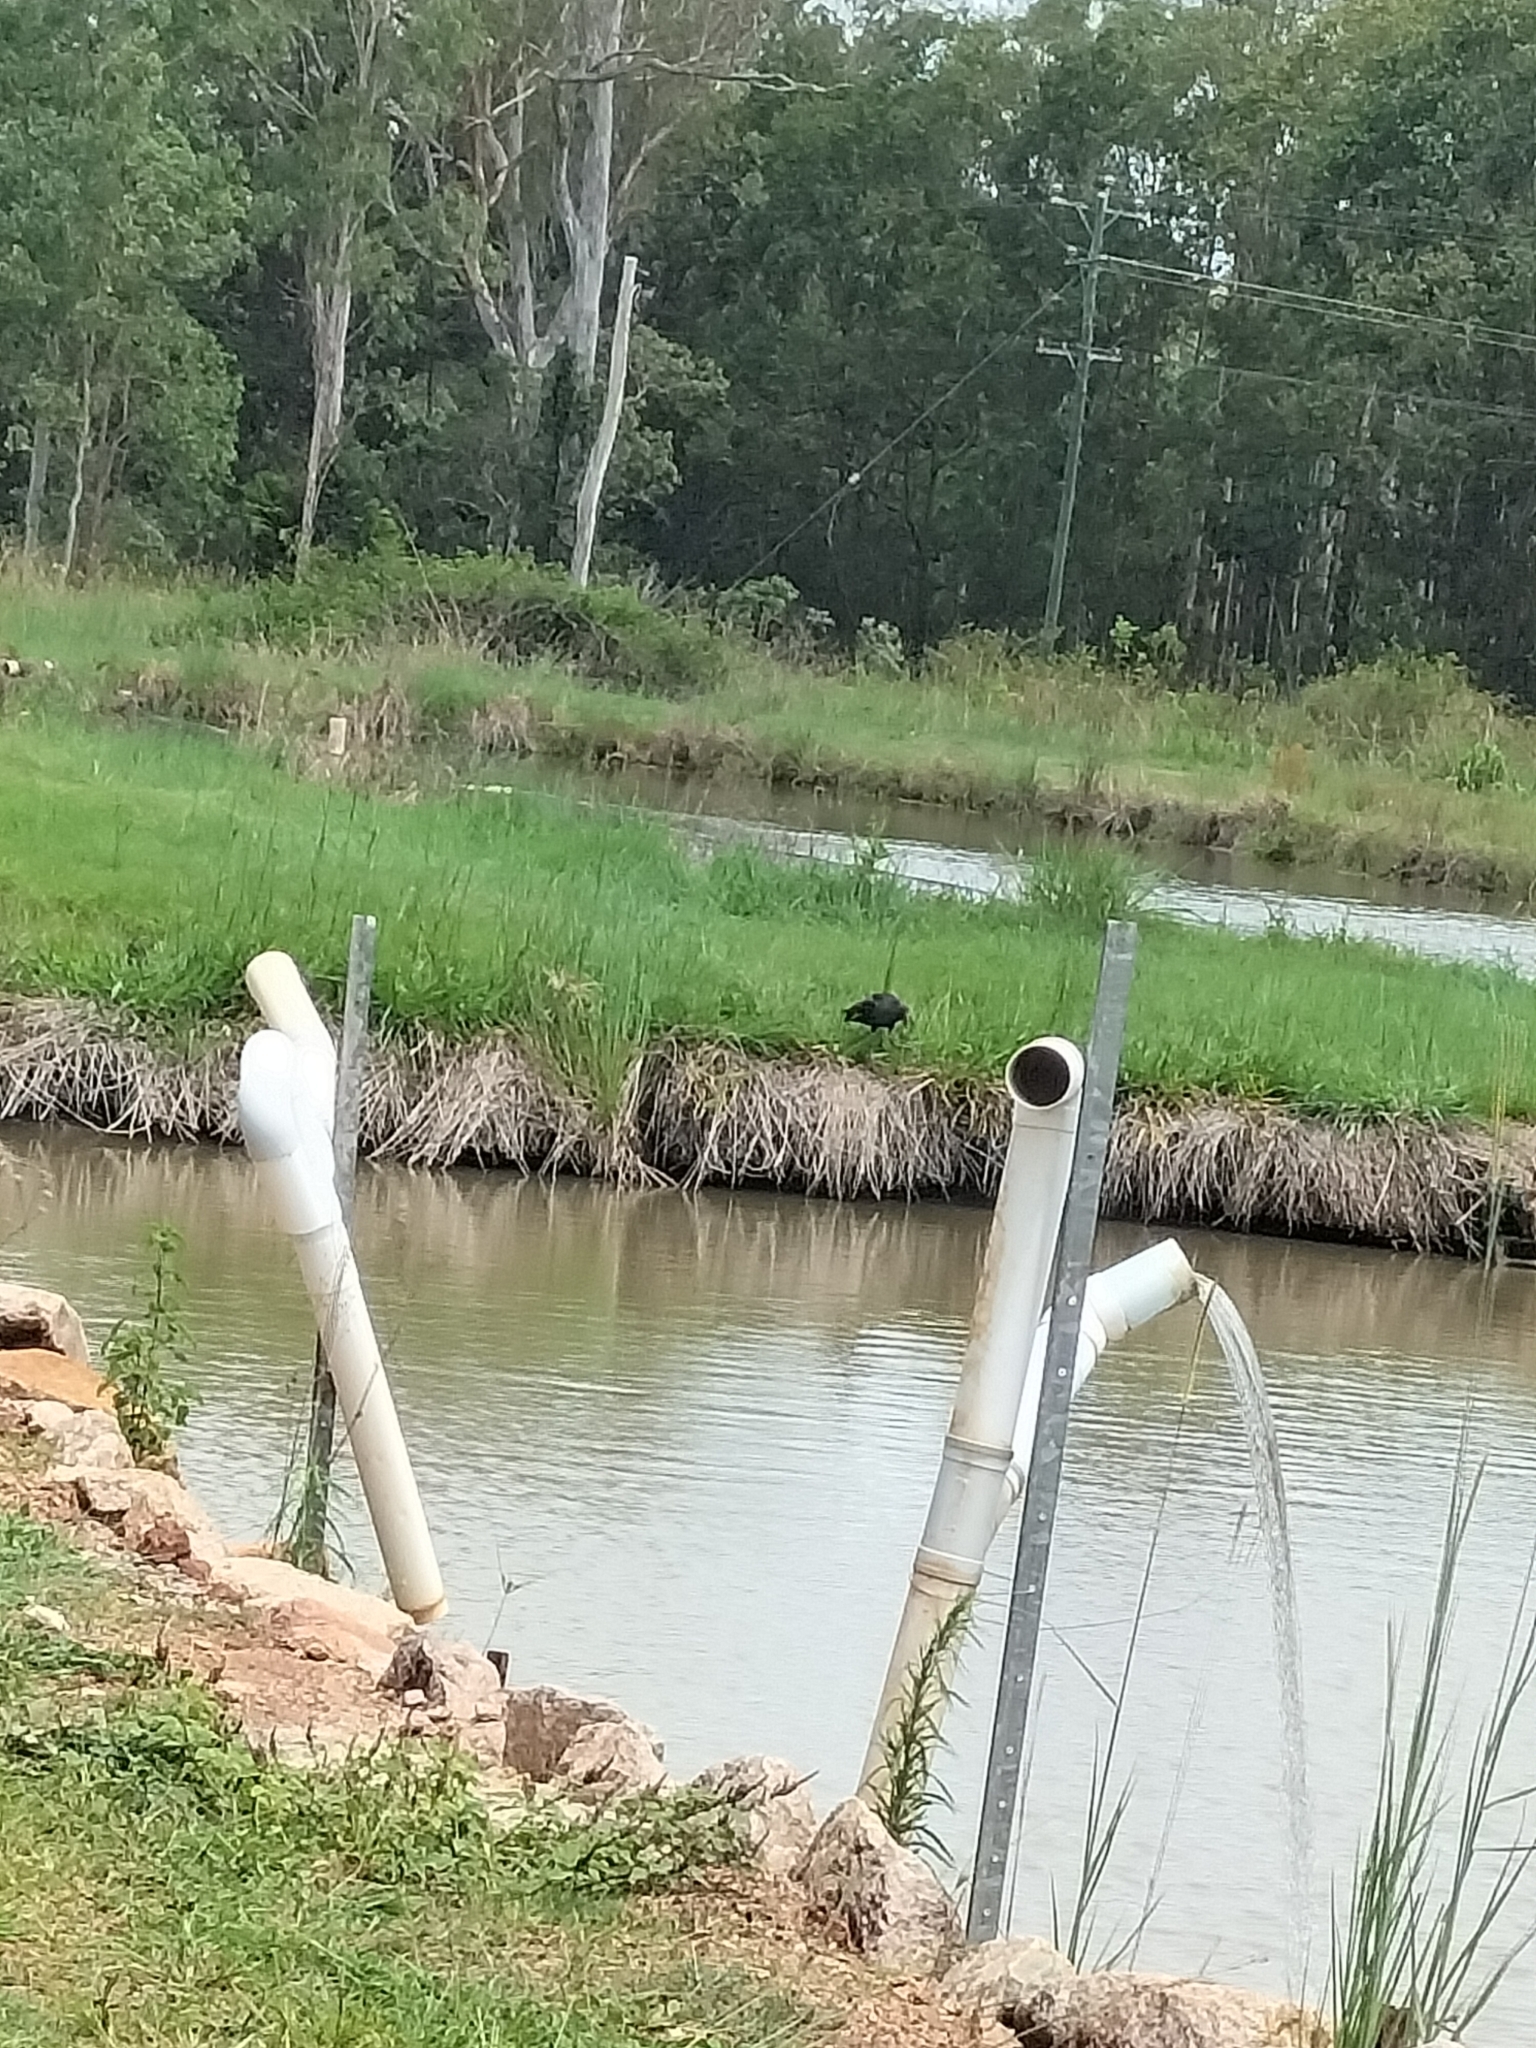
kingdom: Animalia
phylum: Chordata
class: Aves
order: Gruiformes
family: Rallidae
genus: Porphyrio
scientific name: Porphyrio melanotus
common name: Australasian swamphen
